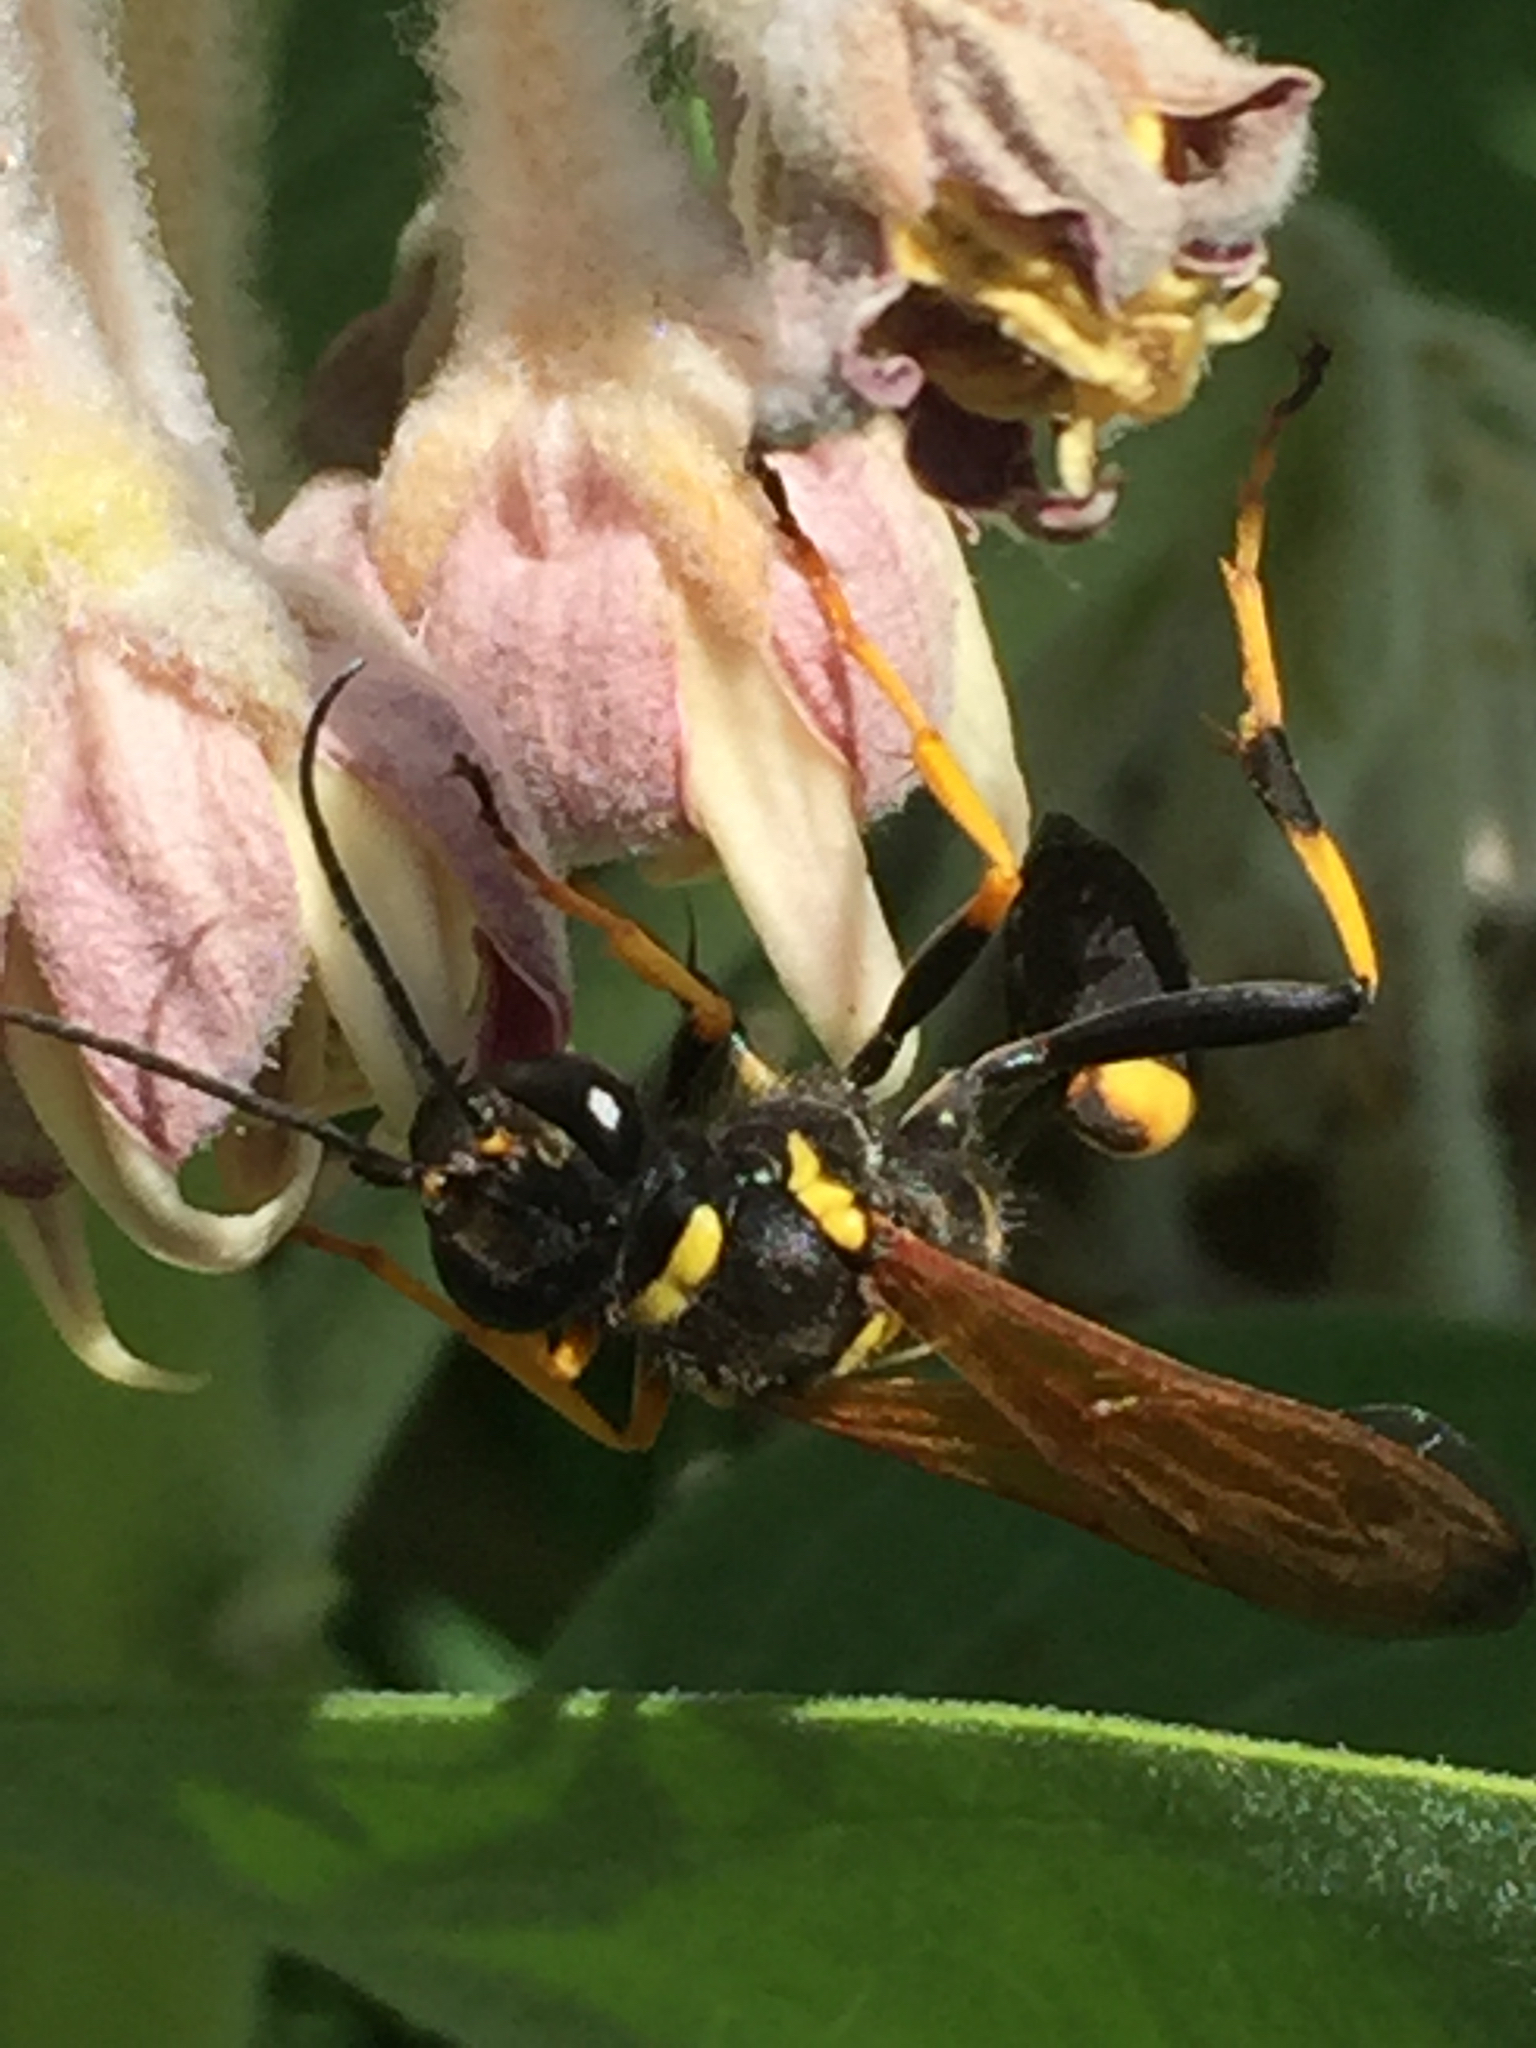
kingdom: Animalia
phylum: Arthropoda
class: Insecta
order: Hymenoptera
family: Sphecidae
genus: Sceliphron
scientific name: Sceliphron caementarium
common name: Mud dauber
